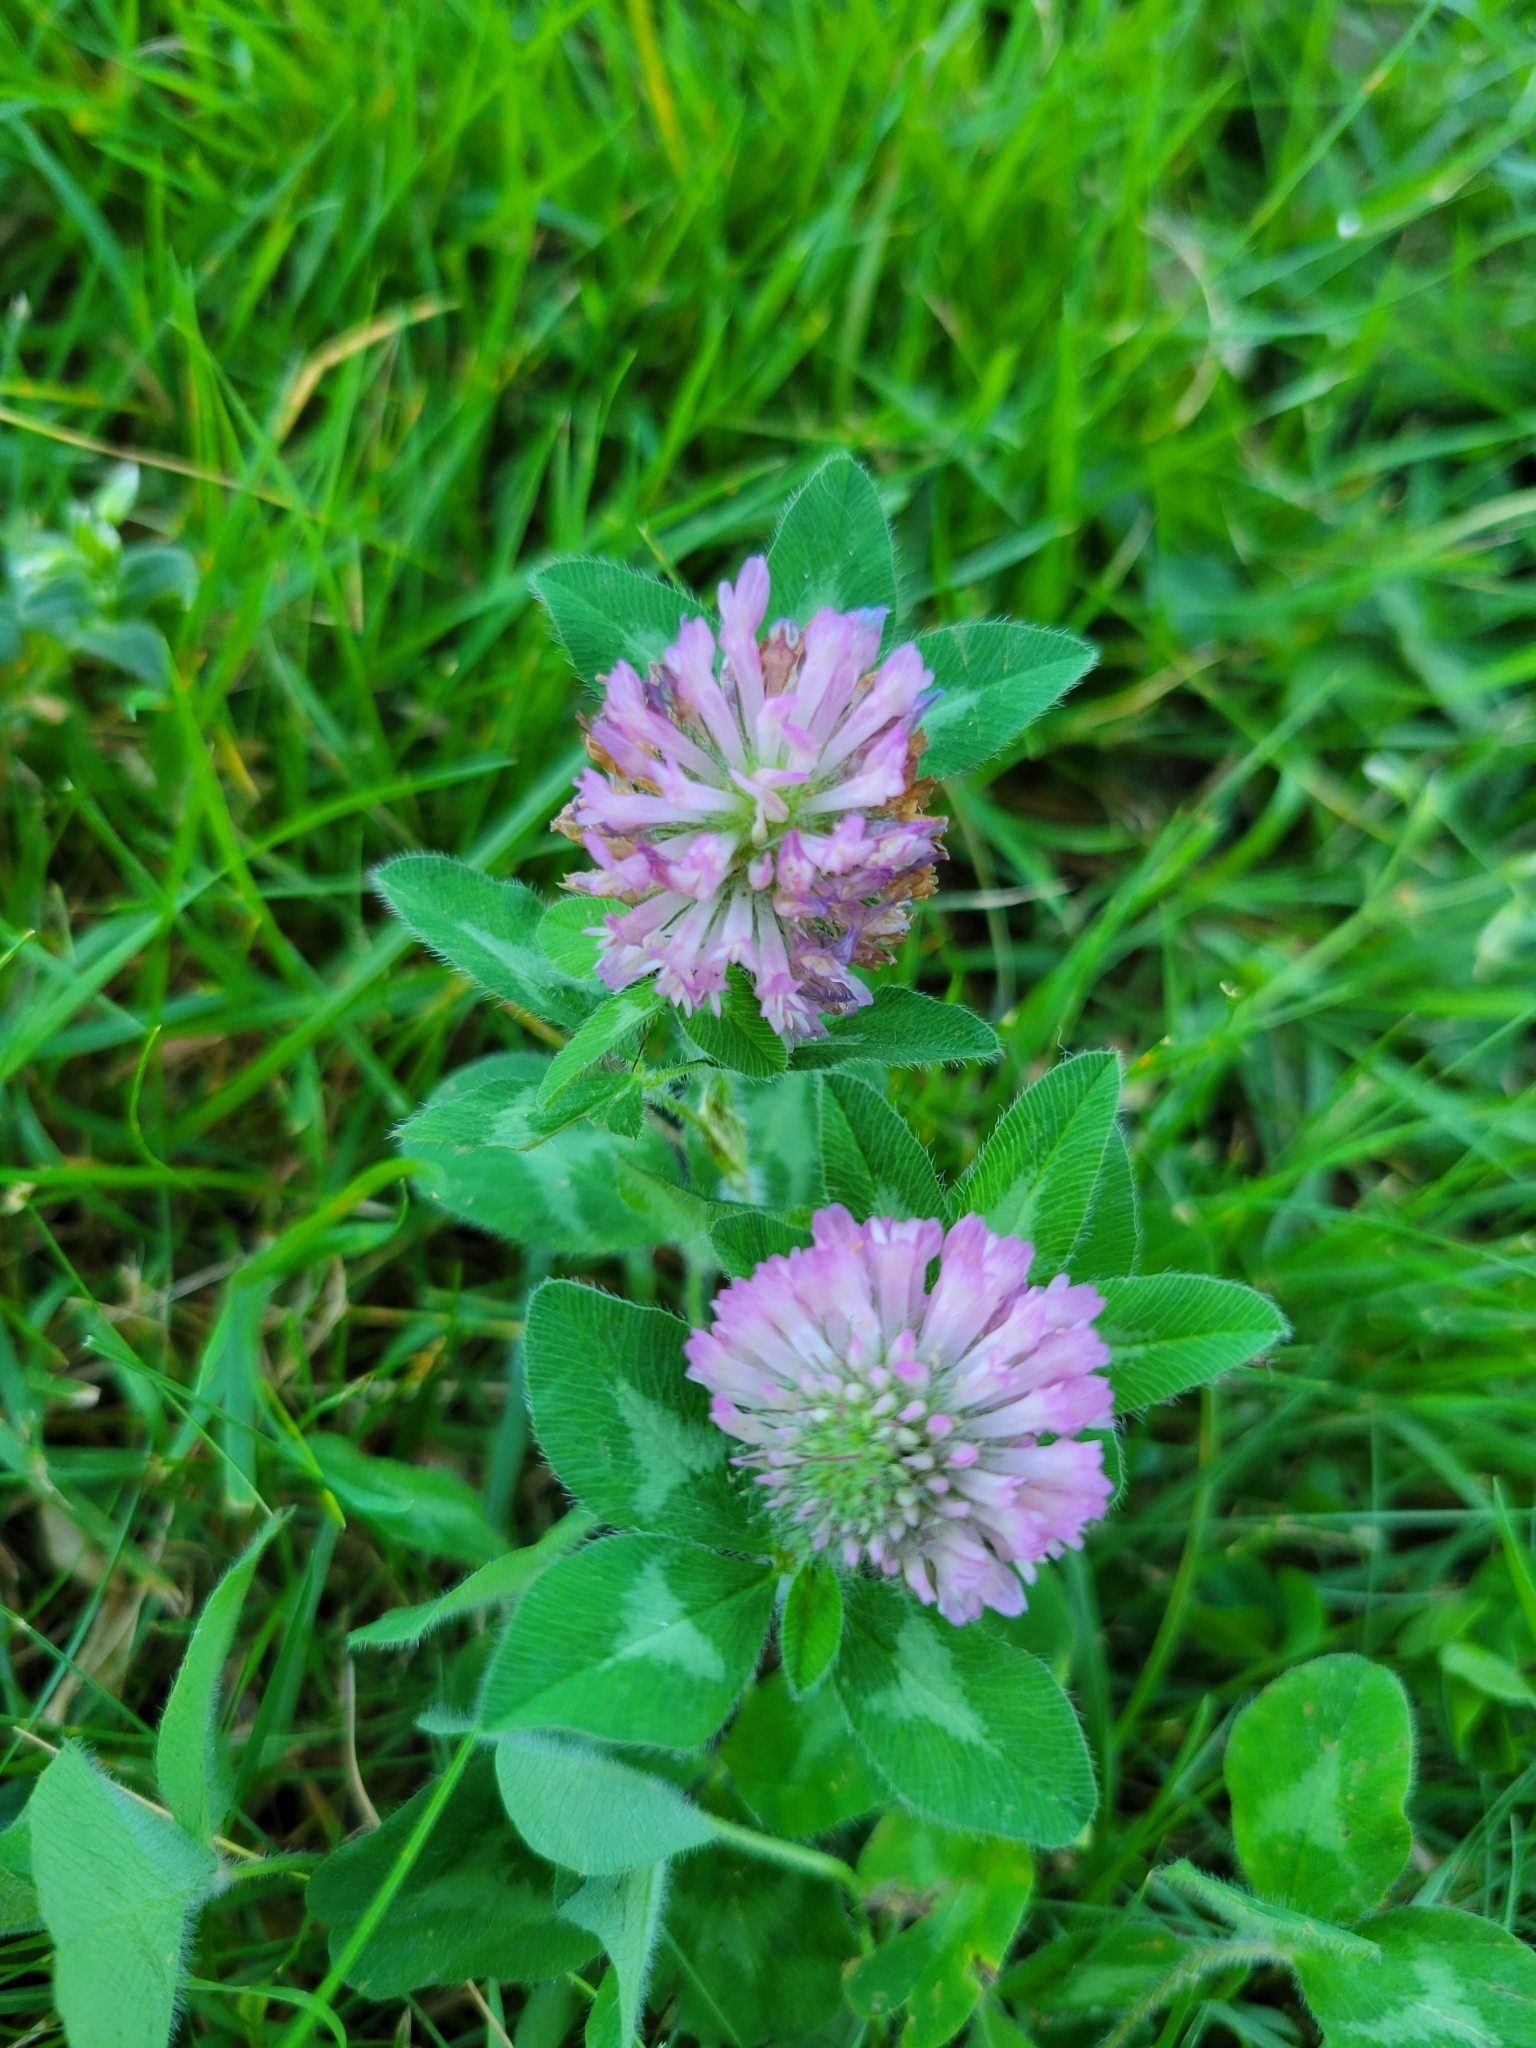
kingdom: Plantae
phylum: Tracheophyta
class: Magnoliopsida
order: Fabales
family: Fabaceae
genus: Trifolium
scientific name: Trifolium pratense
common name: Red clover
